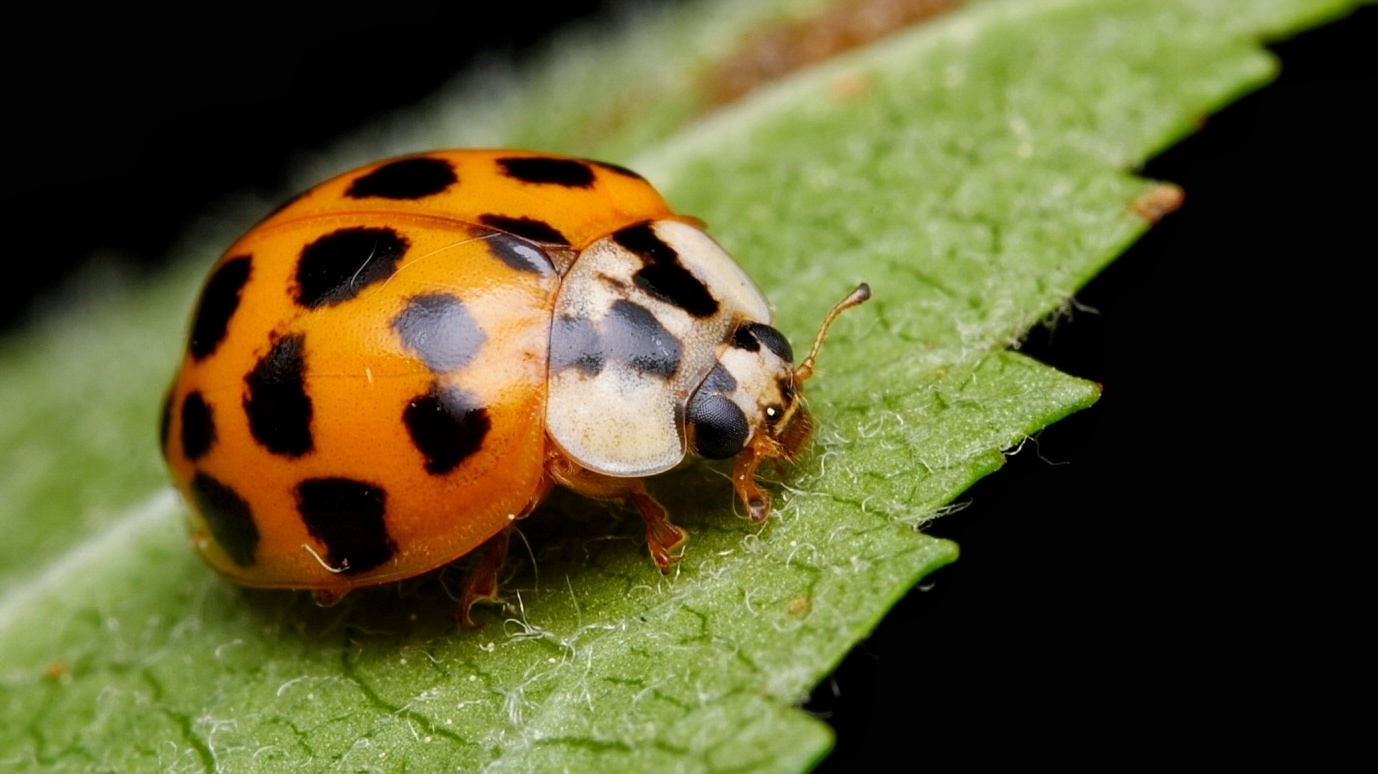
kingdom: Animalia
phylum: Arthropoda
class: Insecta
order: Coleoptera
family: Coccinellidae
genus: Harmonia
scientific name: Harmonia axyridis
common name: Harlequin ladybird
